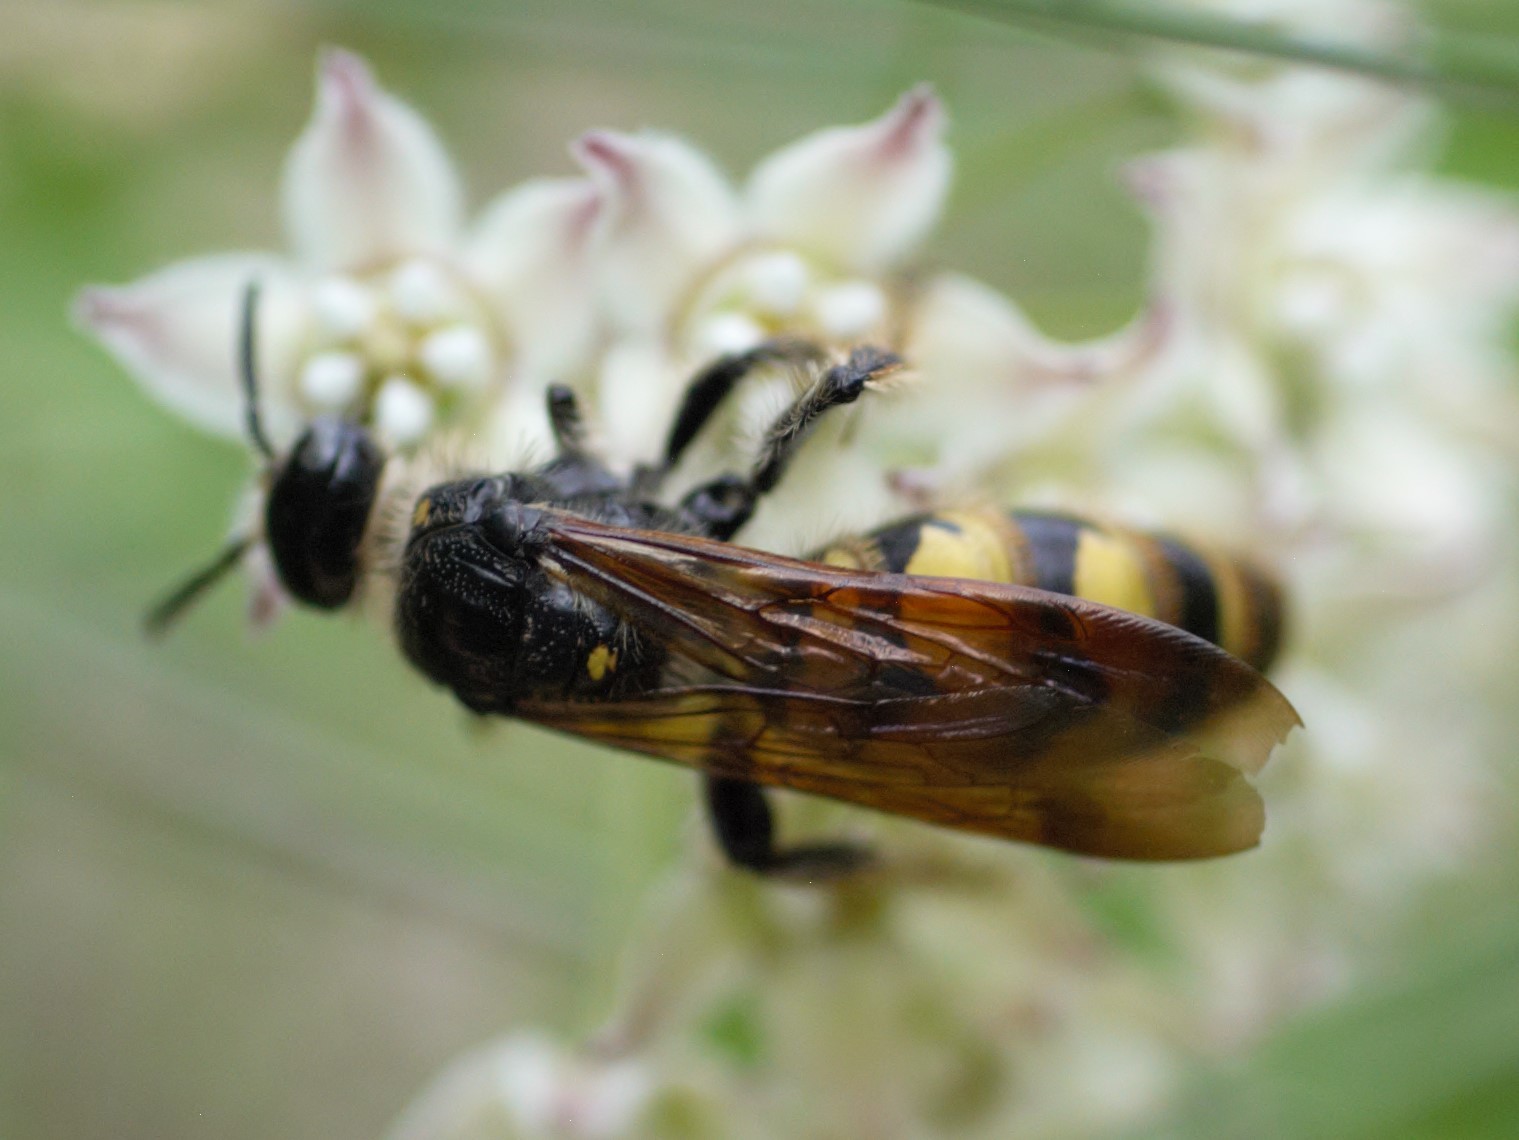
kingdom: Animalia
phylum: Arthropoda
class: Insecta
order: Hymenoptera
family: Scoliidae
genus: Dielis
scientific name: Dielis
